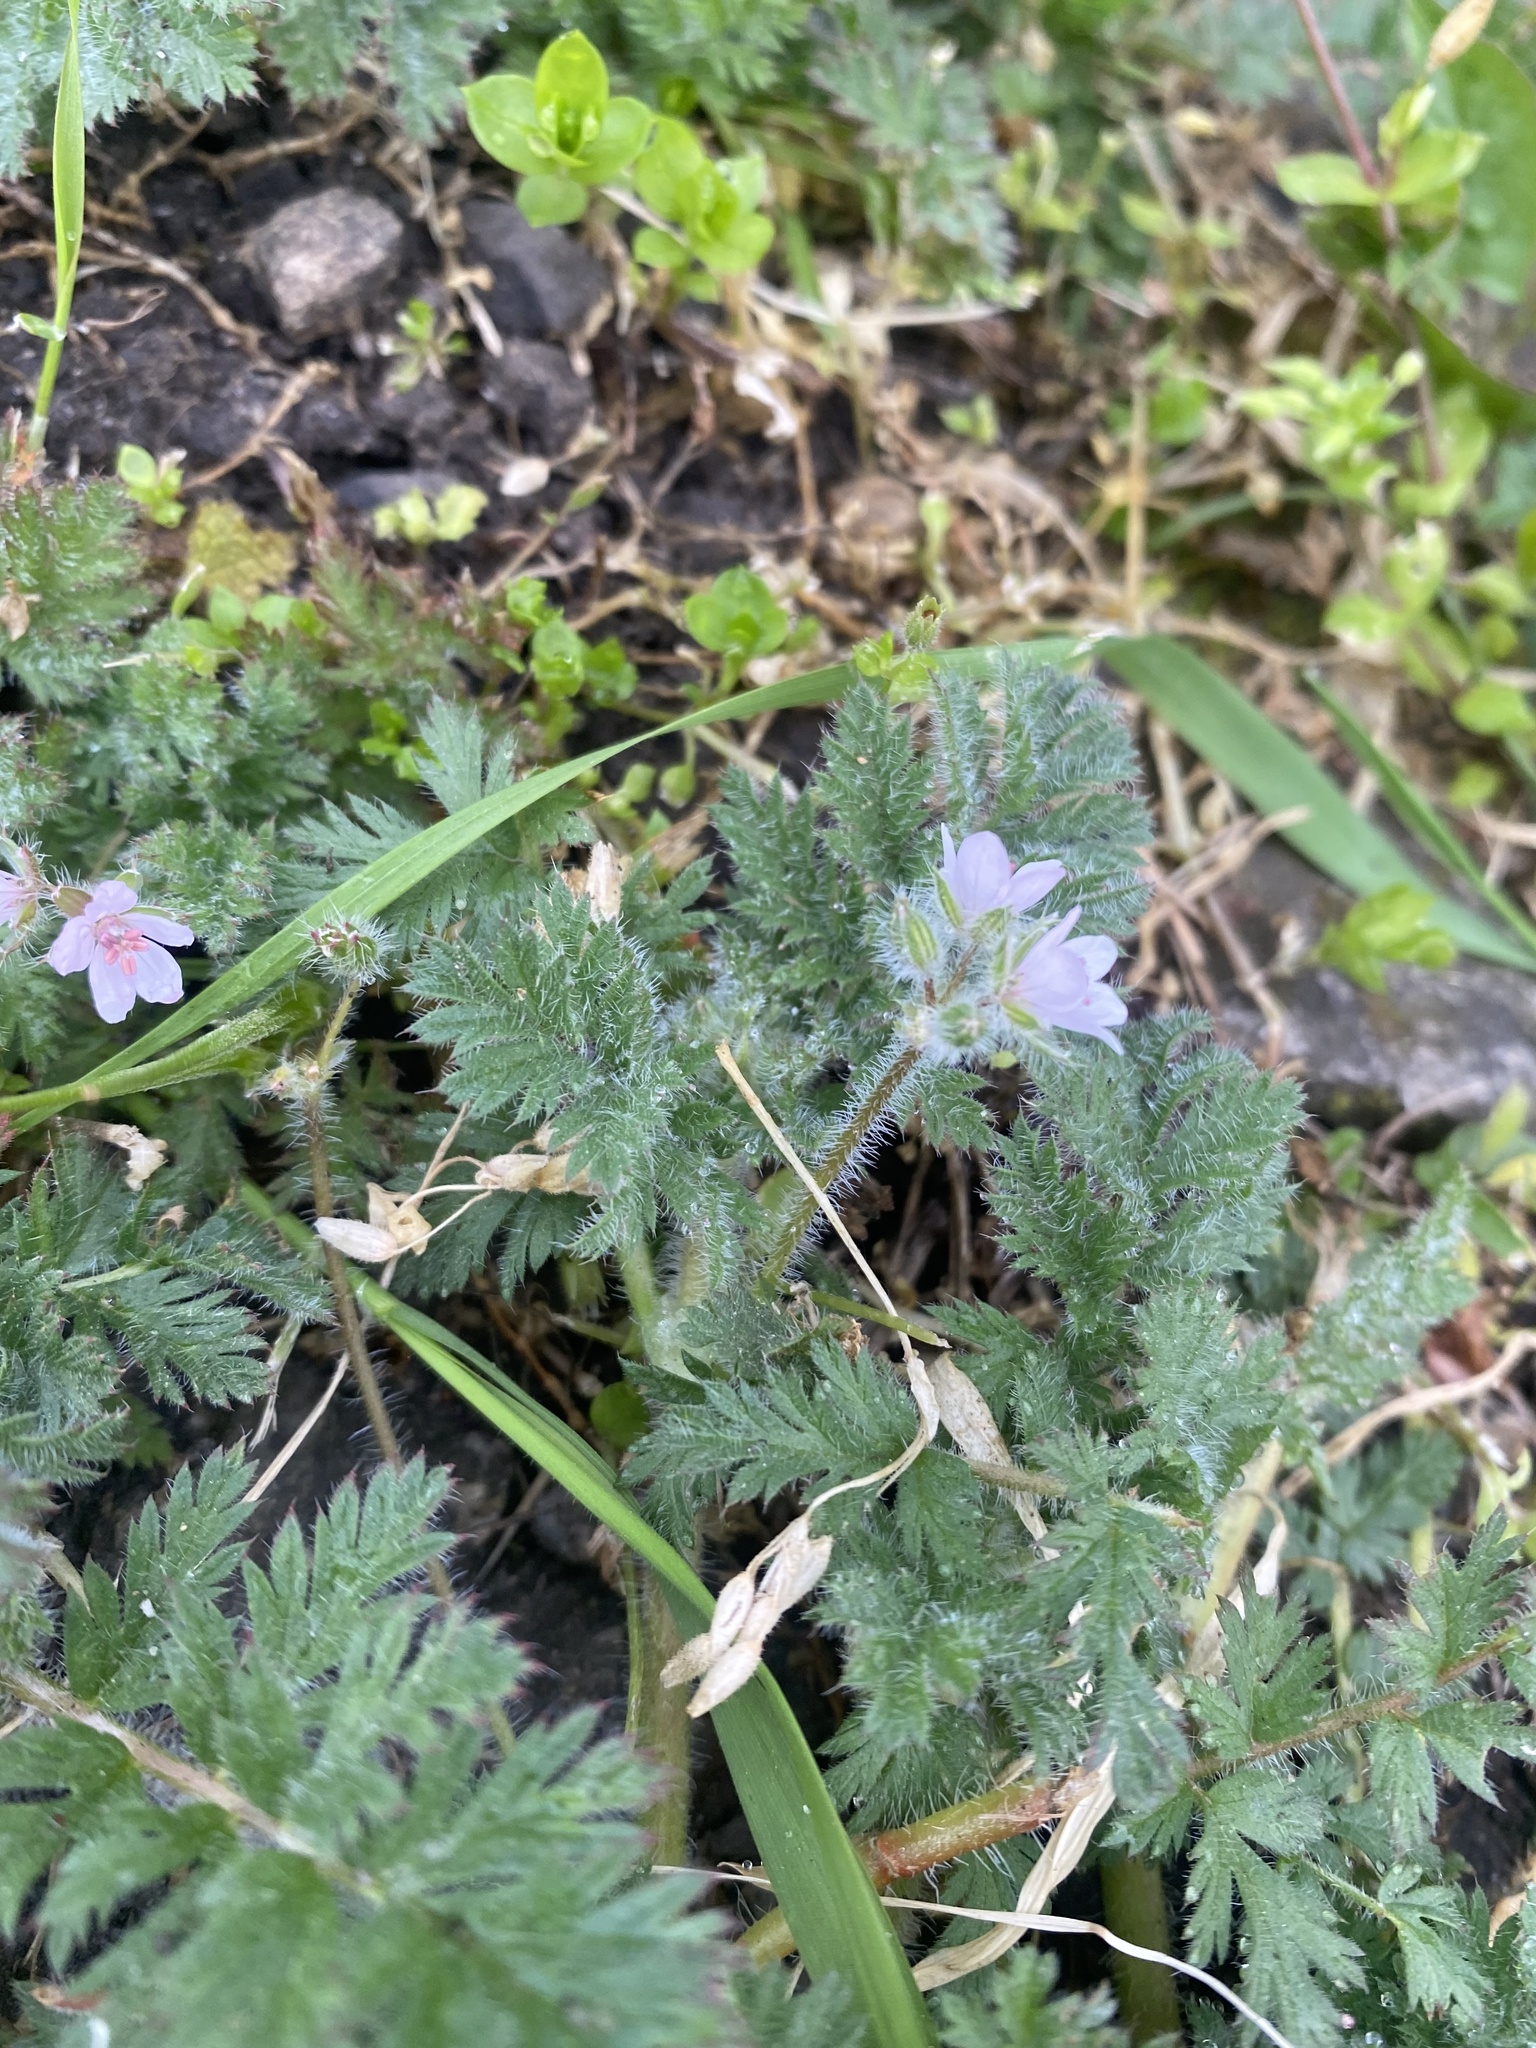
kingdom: Plantae
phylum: Tracheophyta
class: Magnoliopsida
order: Geraniales
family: Geraniaceae
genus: Erodium
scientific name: Erodium cicutarium
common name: Common stork's-bill
